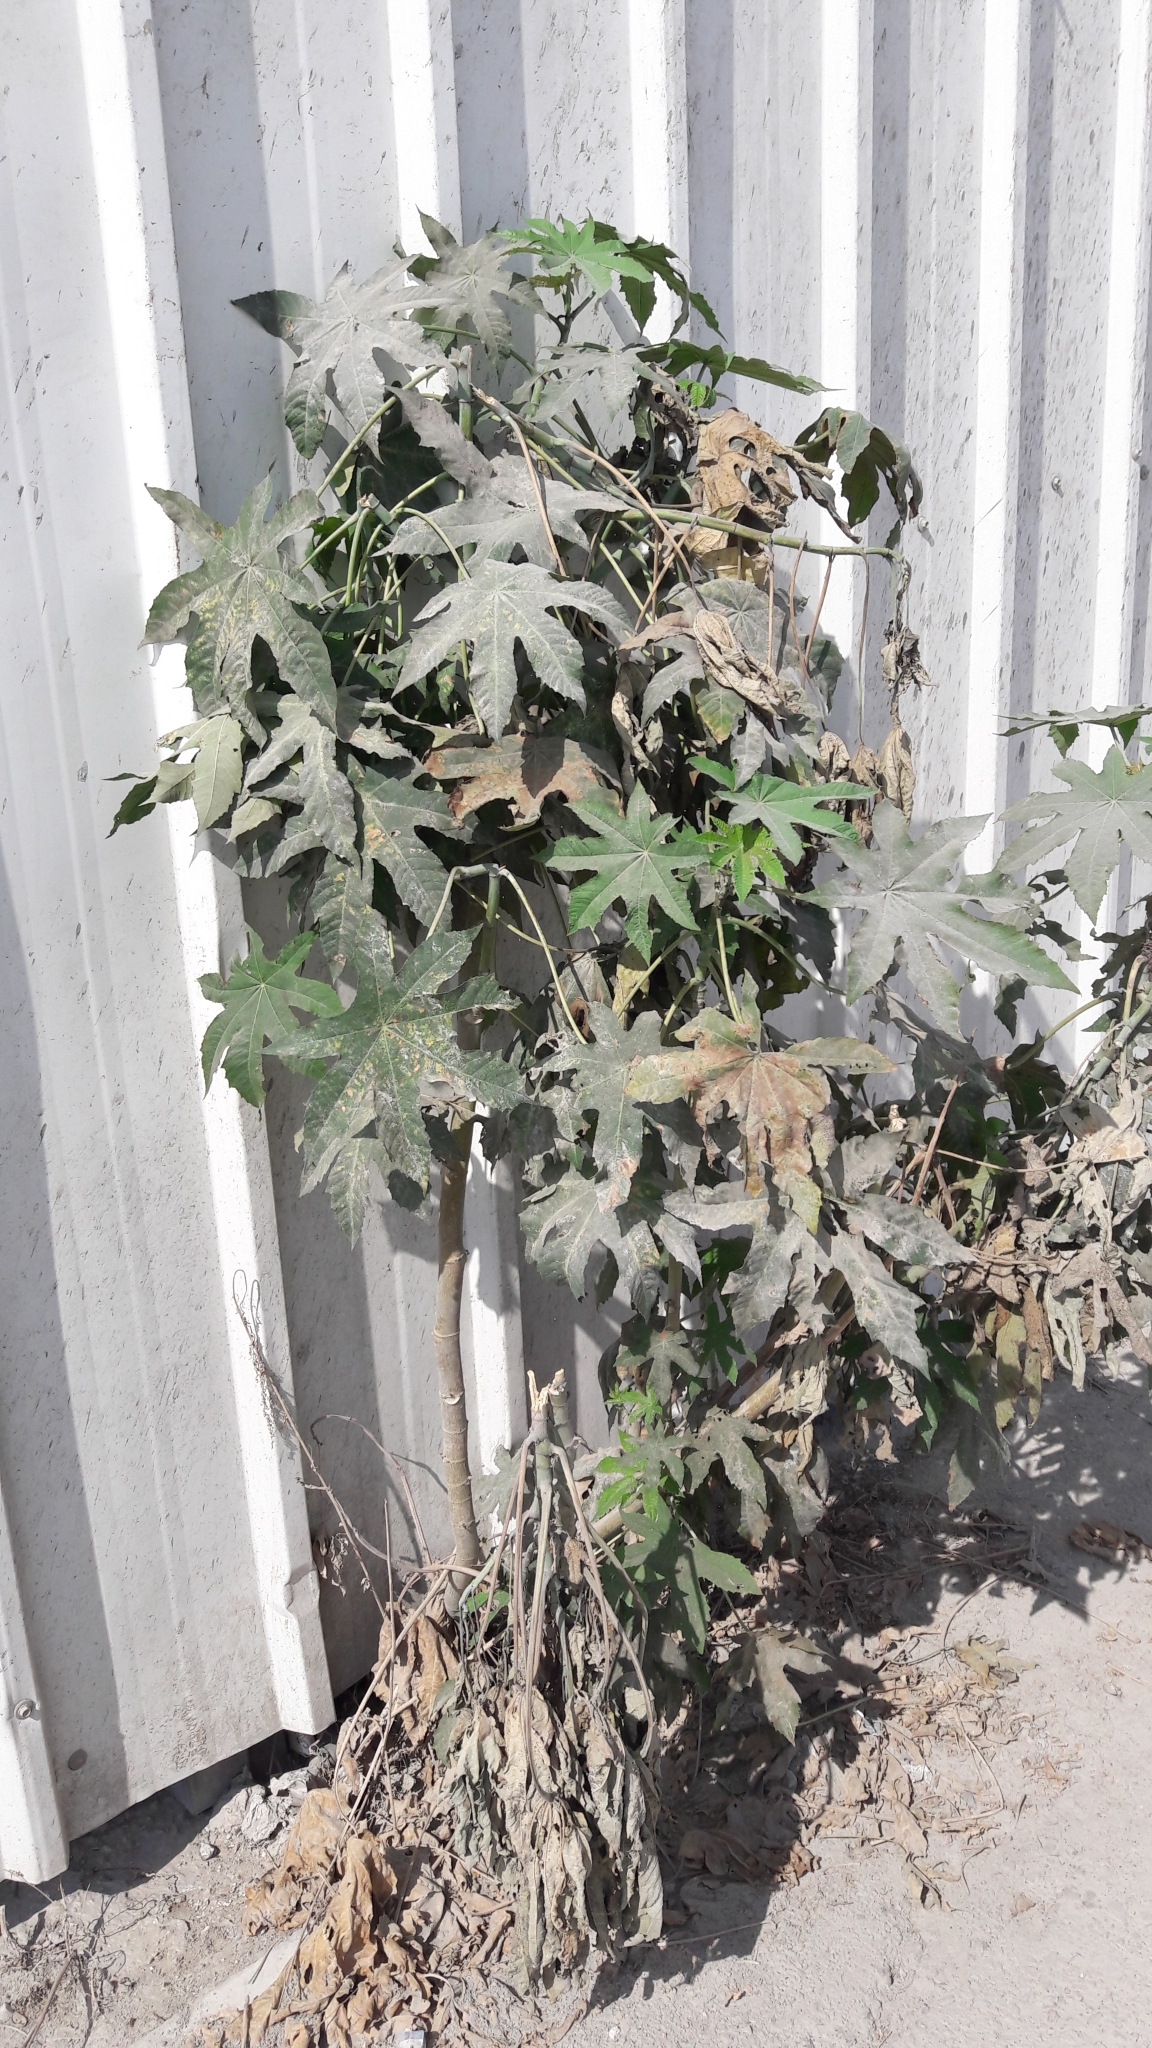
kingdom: Plantae
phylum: Tracheophyta
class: Magnoliopsida
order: Malpighiales
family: Euphorbiaceae
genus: Ricinus
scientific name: Ricinus communis
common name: Castor-oil-plant
